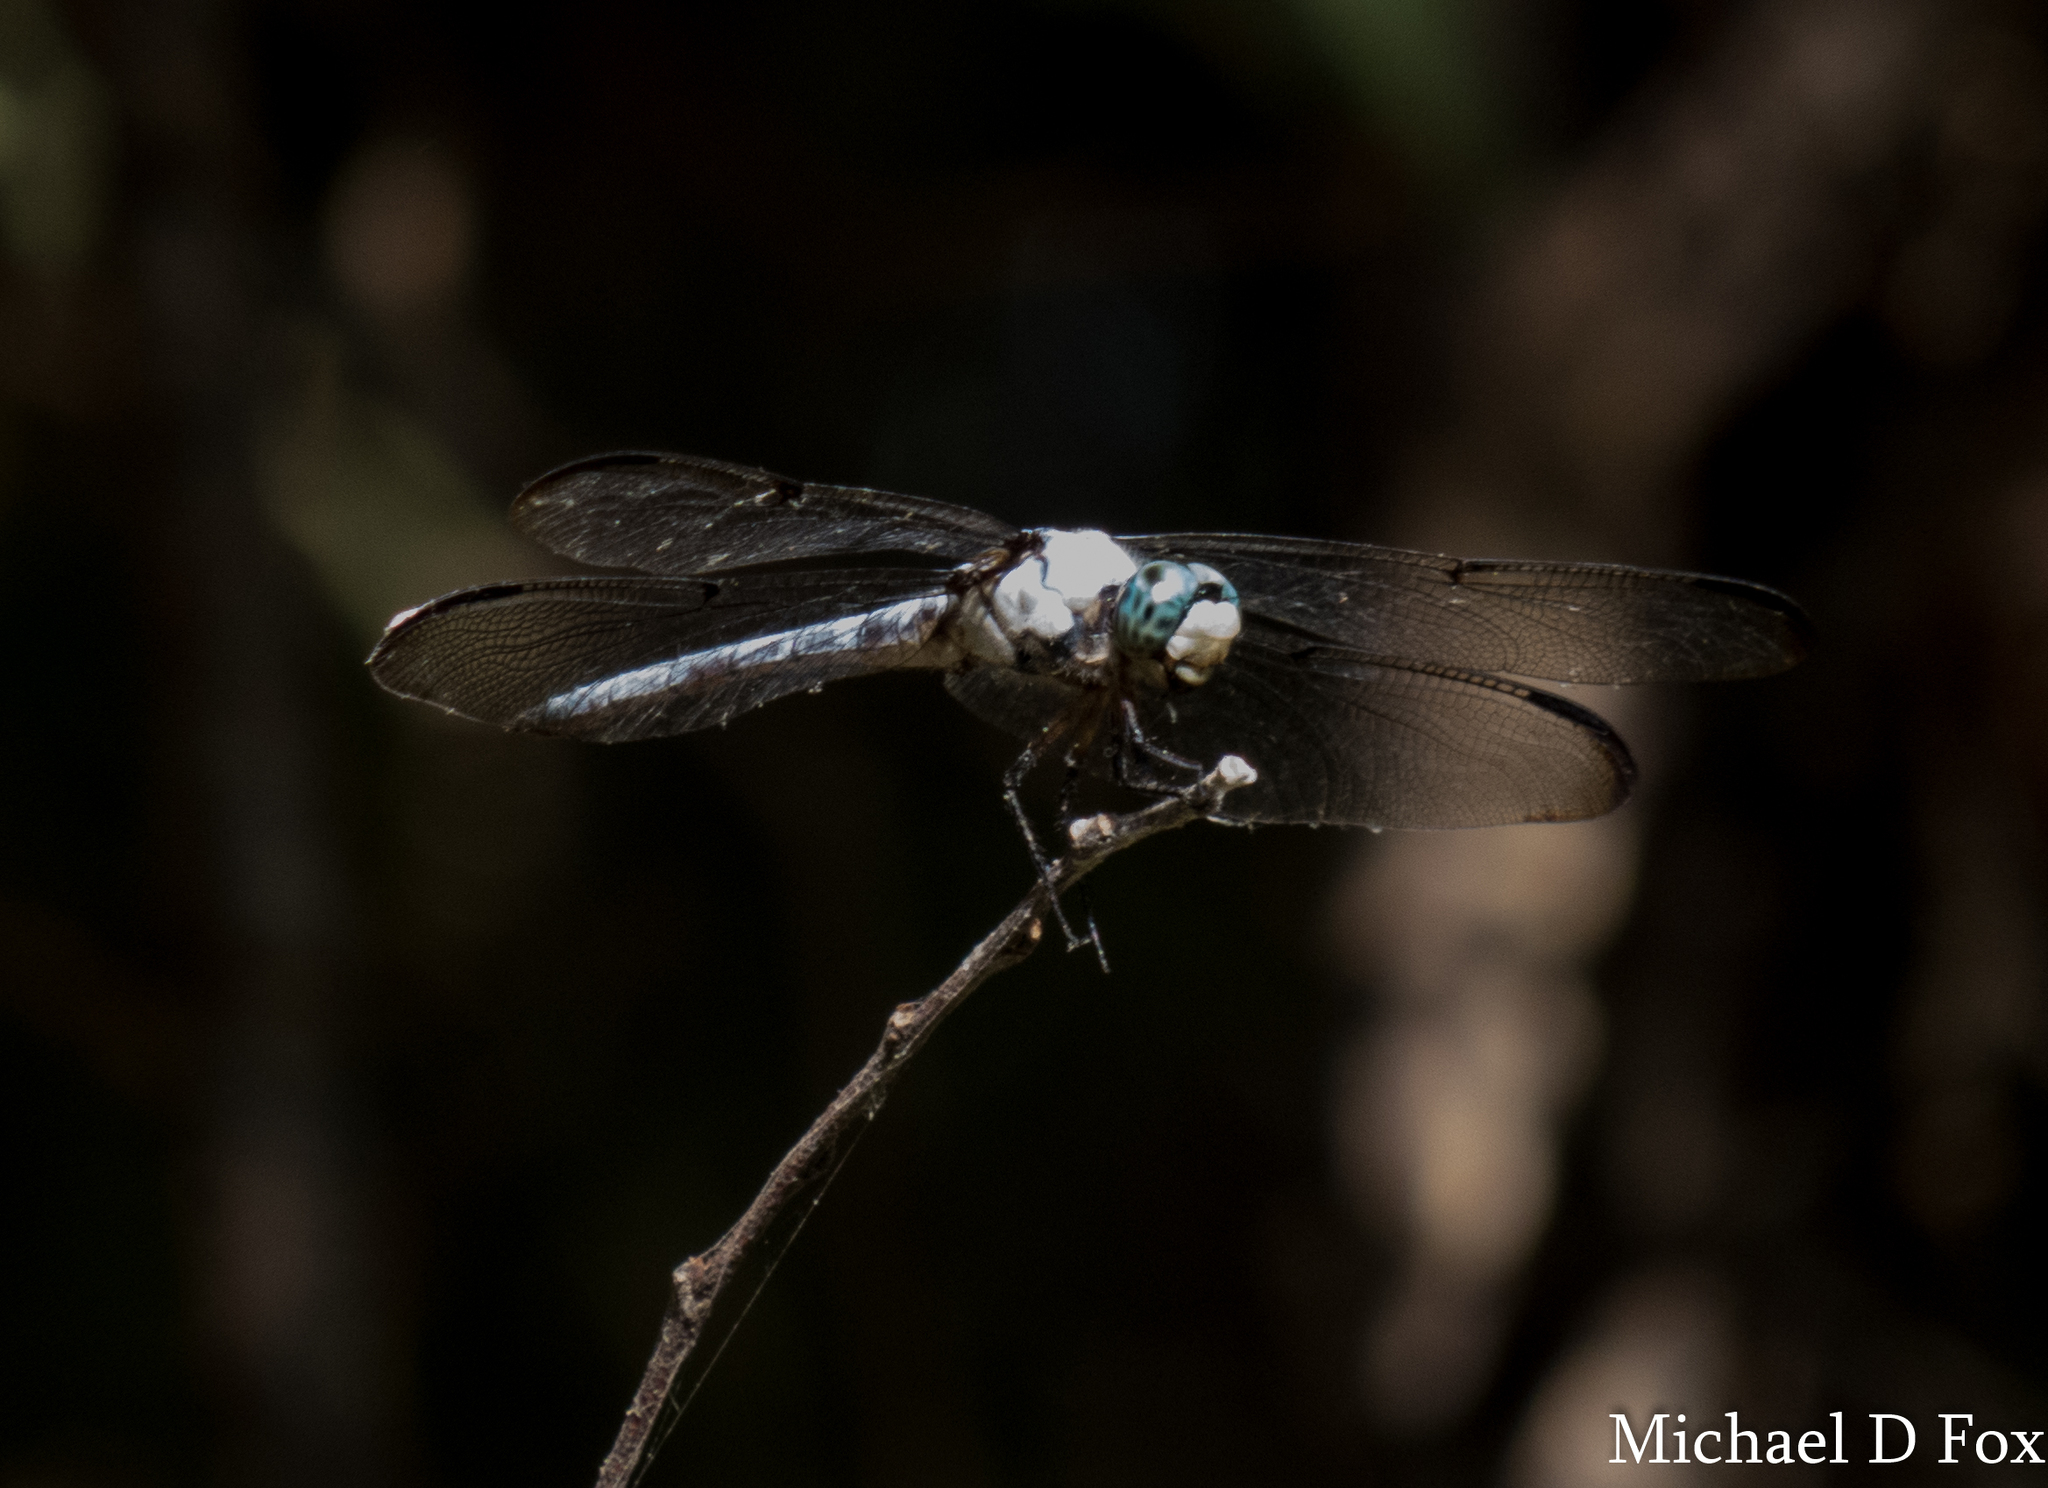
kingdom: Animalia
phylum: Arthropoda
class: Insecta
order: Odonata
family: Libellulidae
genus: Libellula
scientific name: Libellula vibrans
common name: Great blue skimmer
